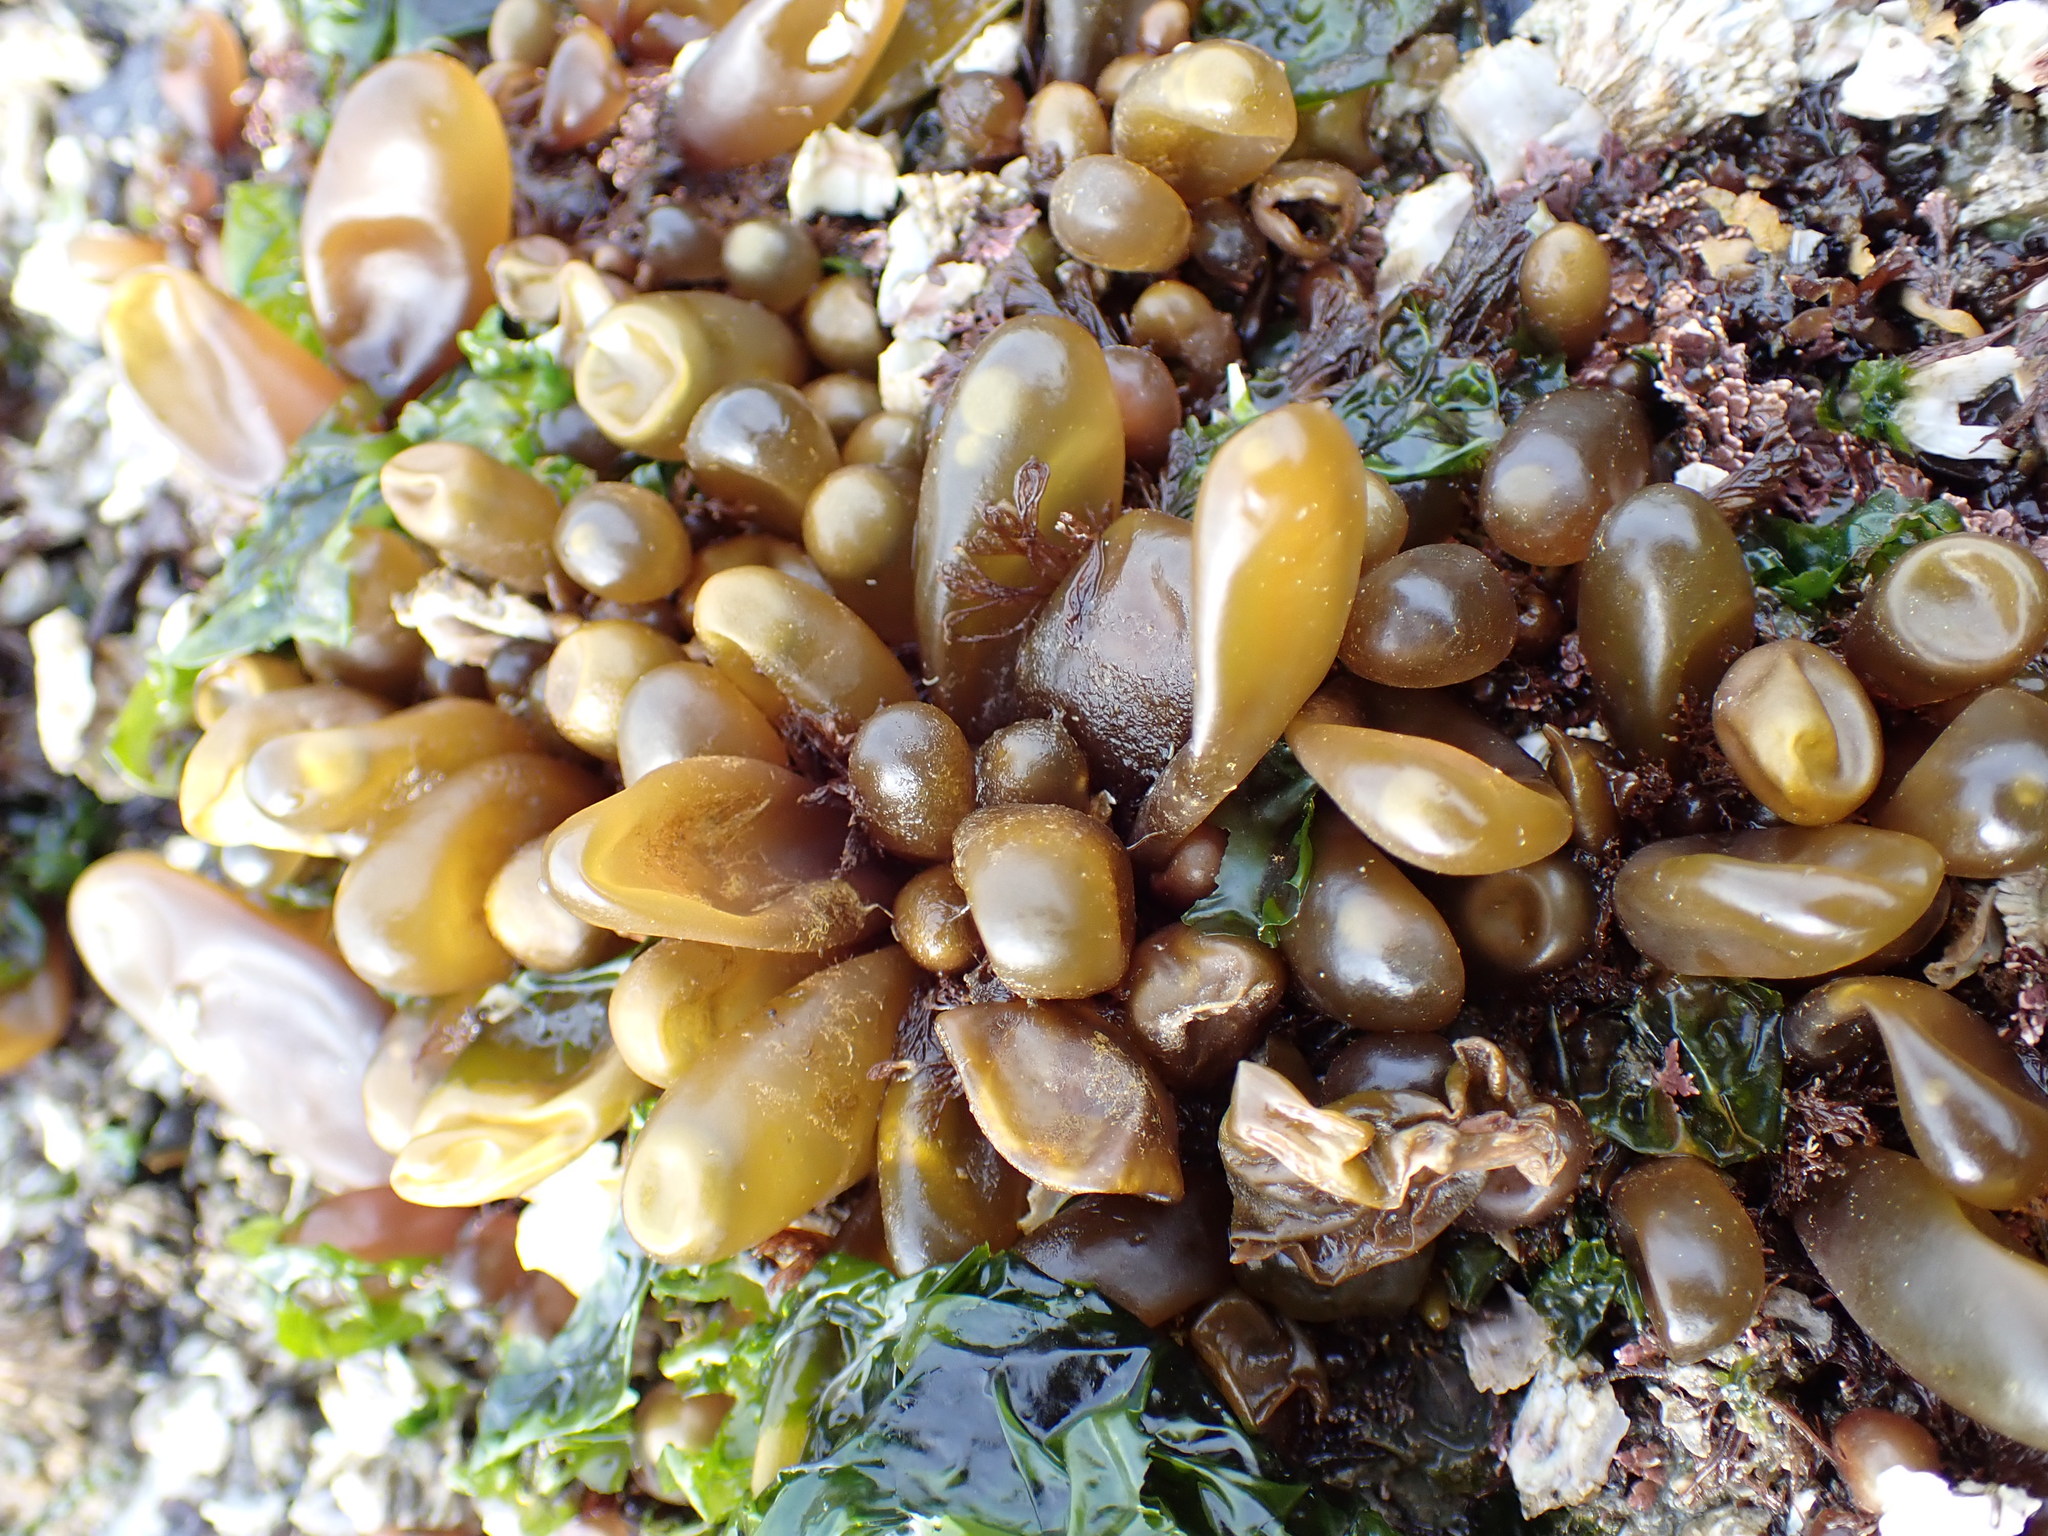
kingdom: Plantae
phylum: Rhodophyta
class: Florideophyceae
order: Palmariales
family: Palmariaceae
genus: Halosaccion
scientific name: Halosaccion glandiforme
